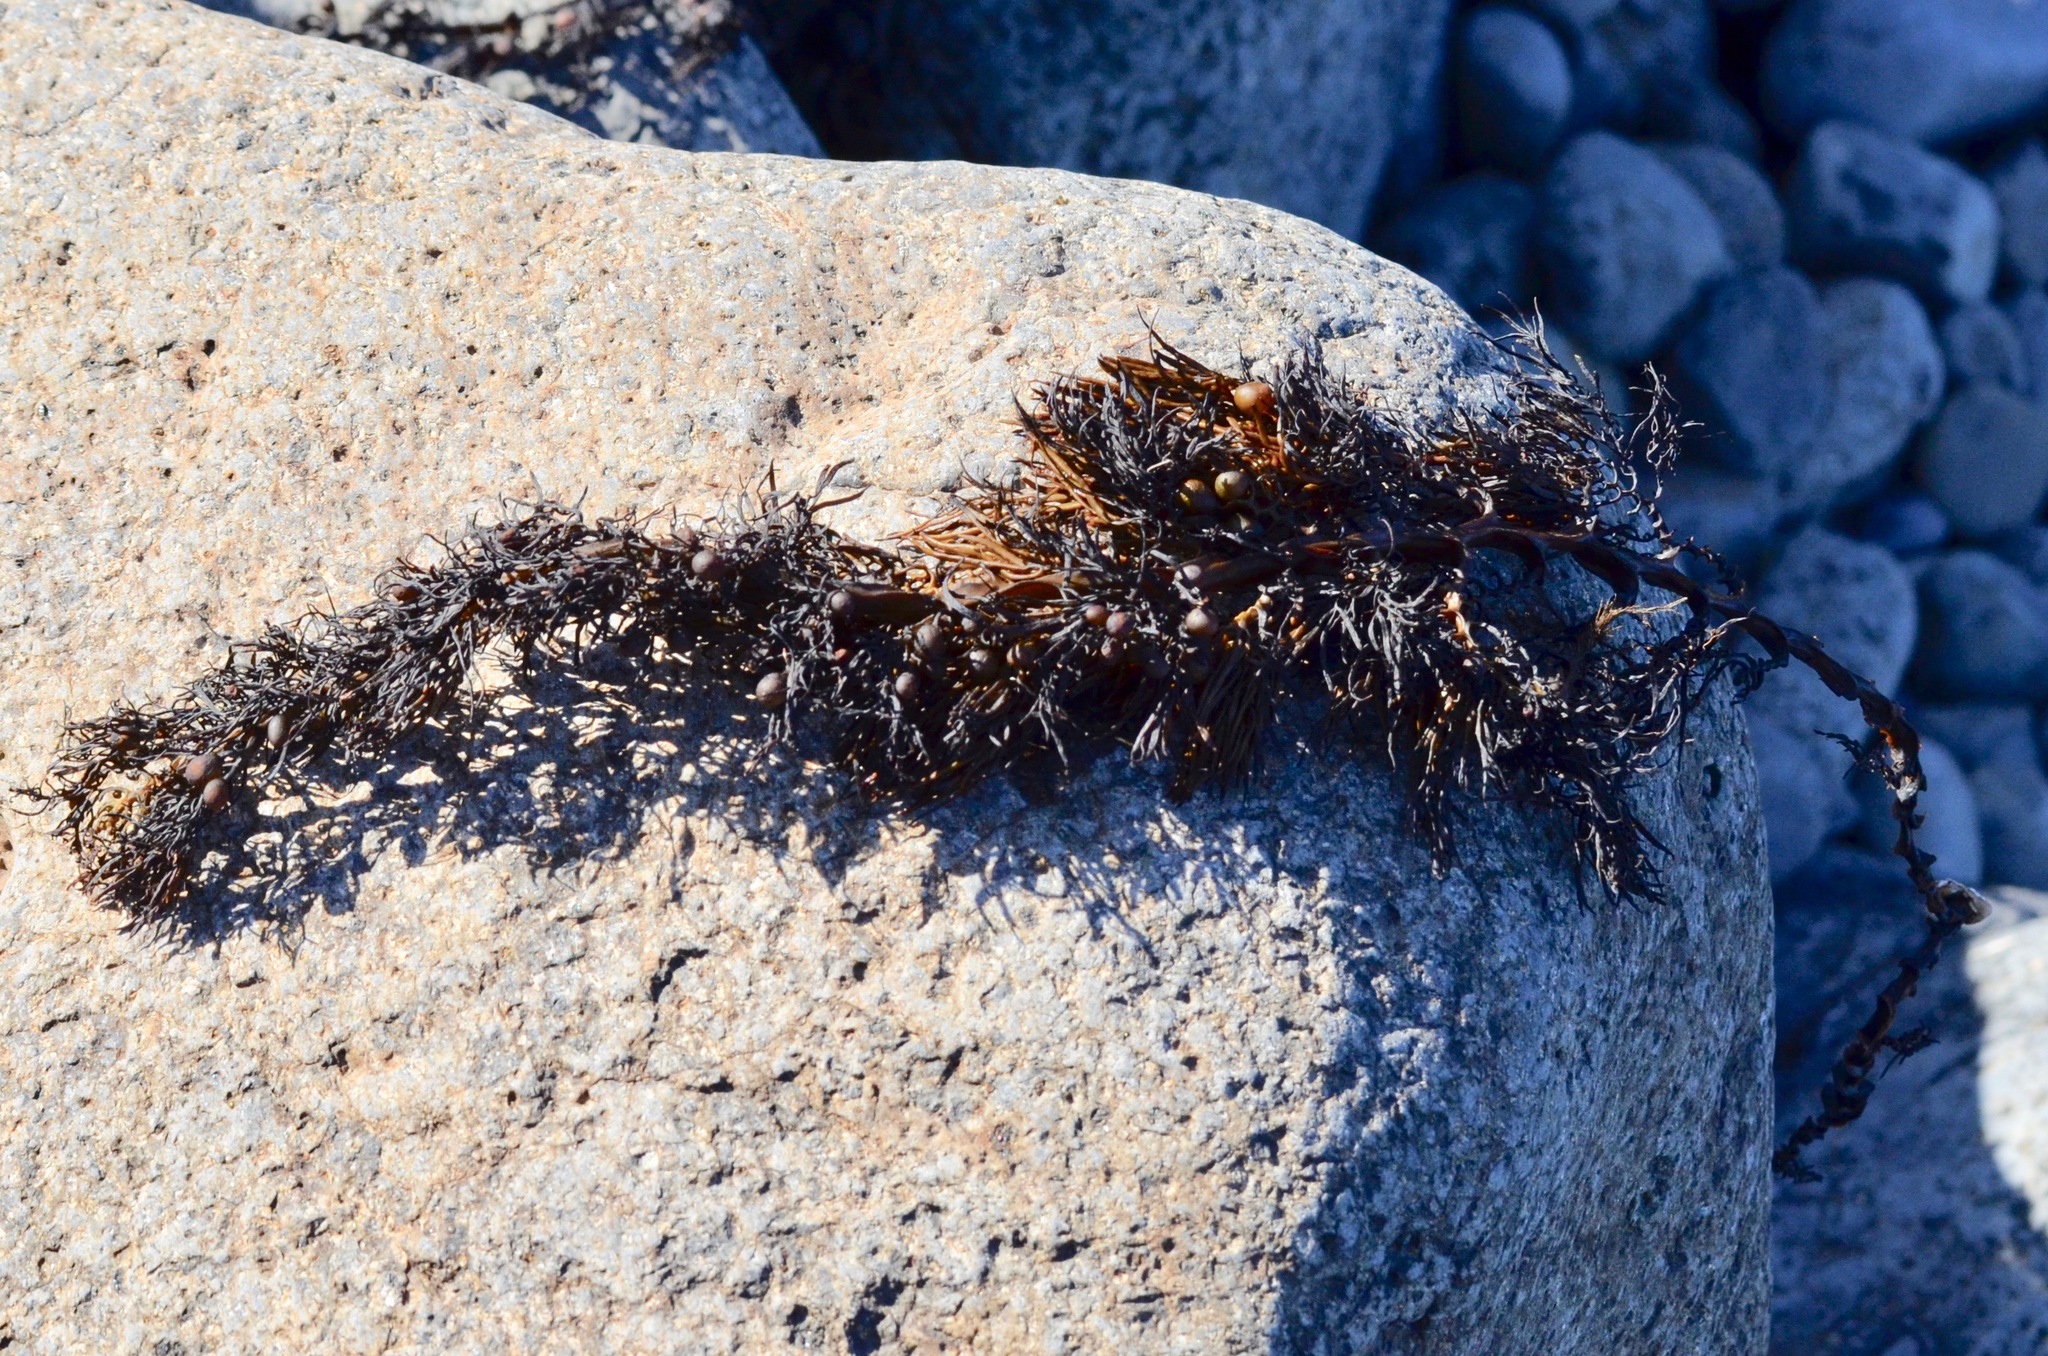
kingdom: Chromista
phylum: Ochrophyta
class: Phaeophyceae
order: Fucales
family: Sargassaceae
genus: Cystophora
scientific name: Cystophora retroflexa
